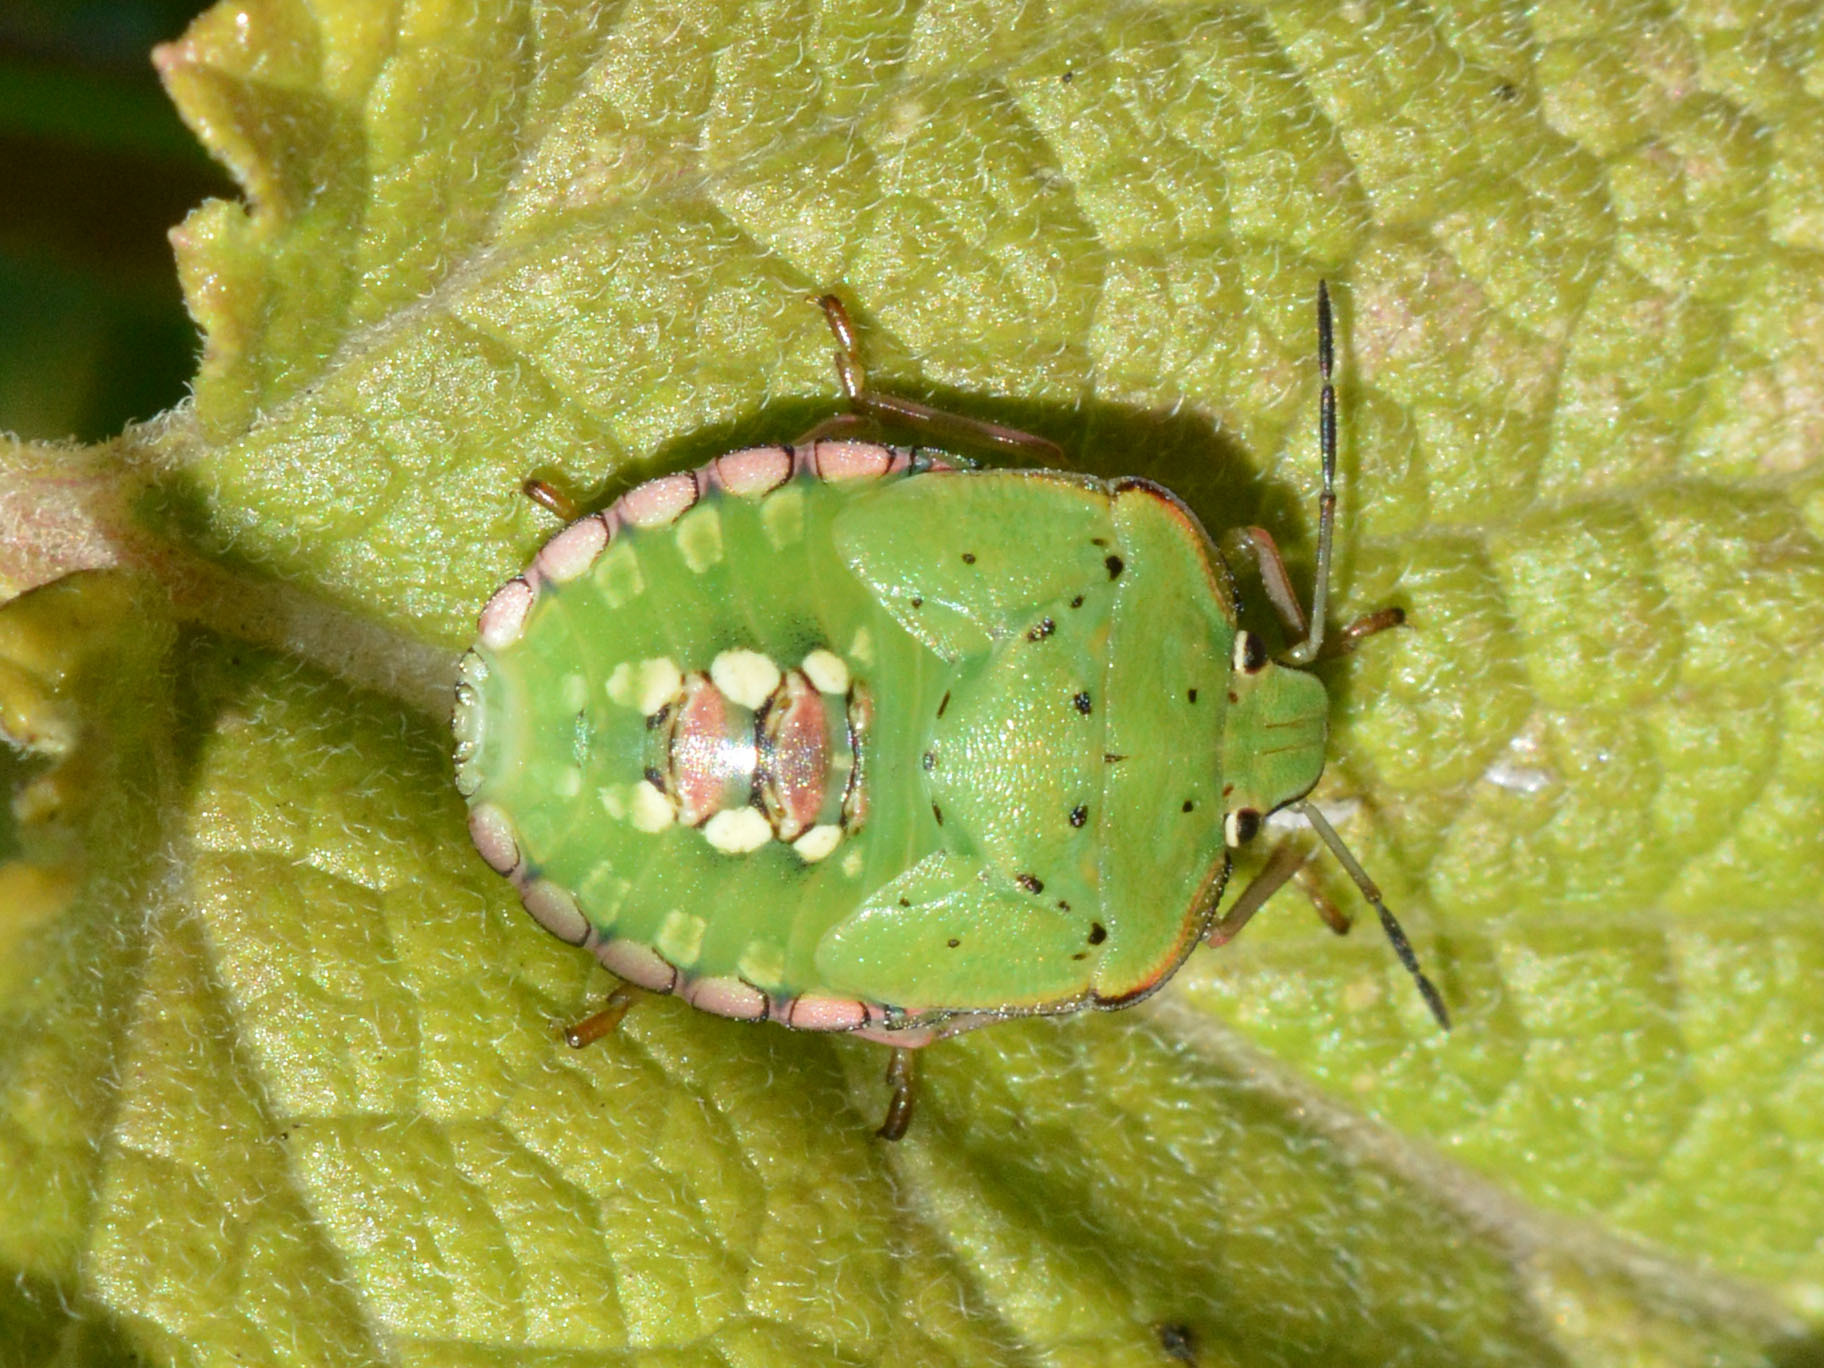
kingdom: Animalia
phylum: Arthropoda
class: Insecta
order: Hemiptera
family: Pentatomidae
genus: Nezara
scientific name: Nezara viridula
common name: Southern green stink bug
